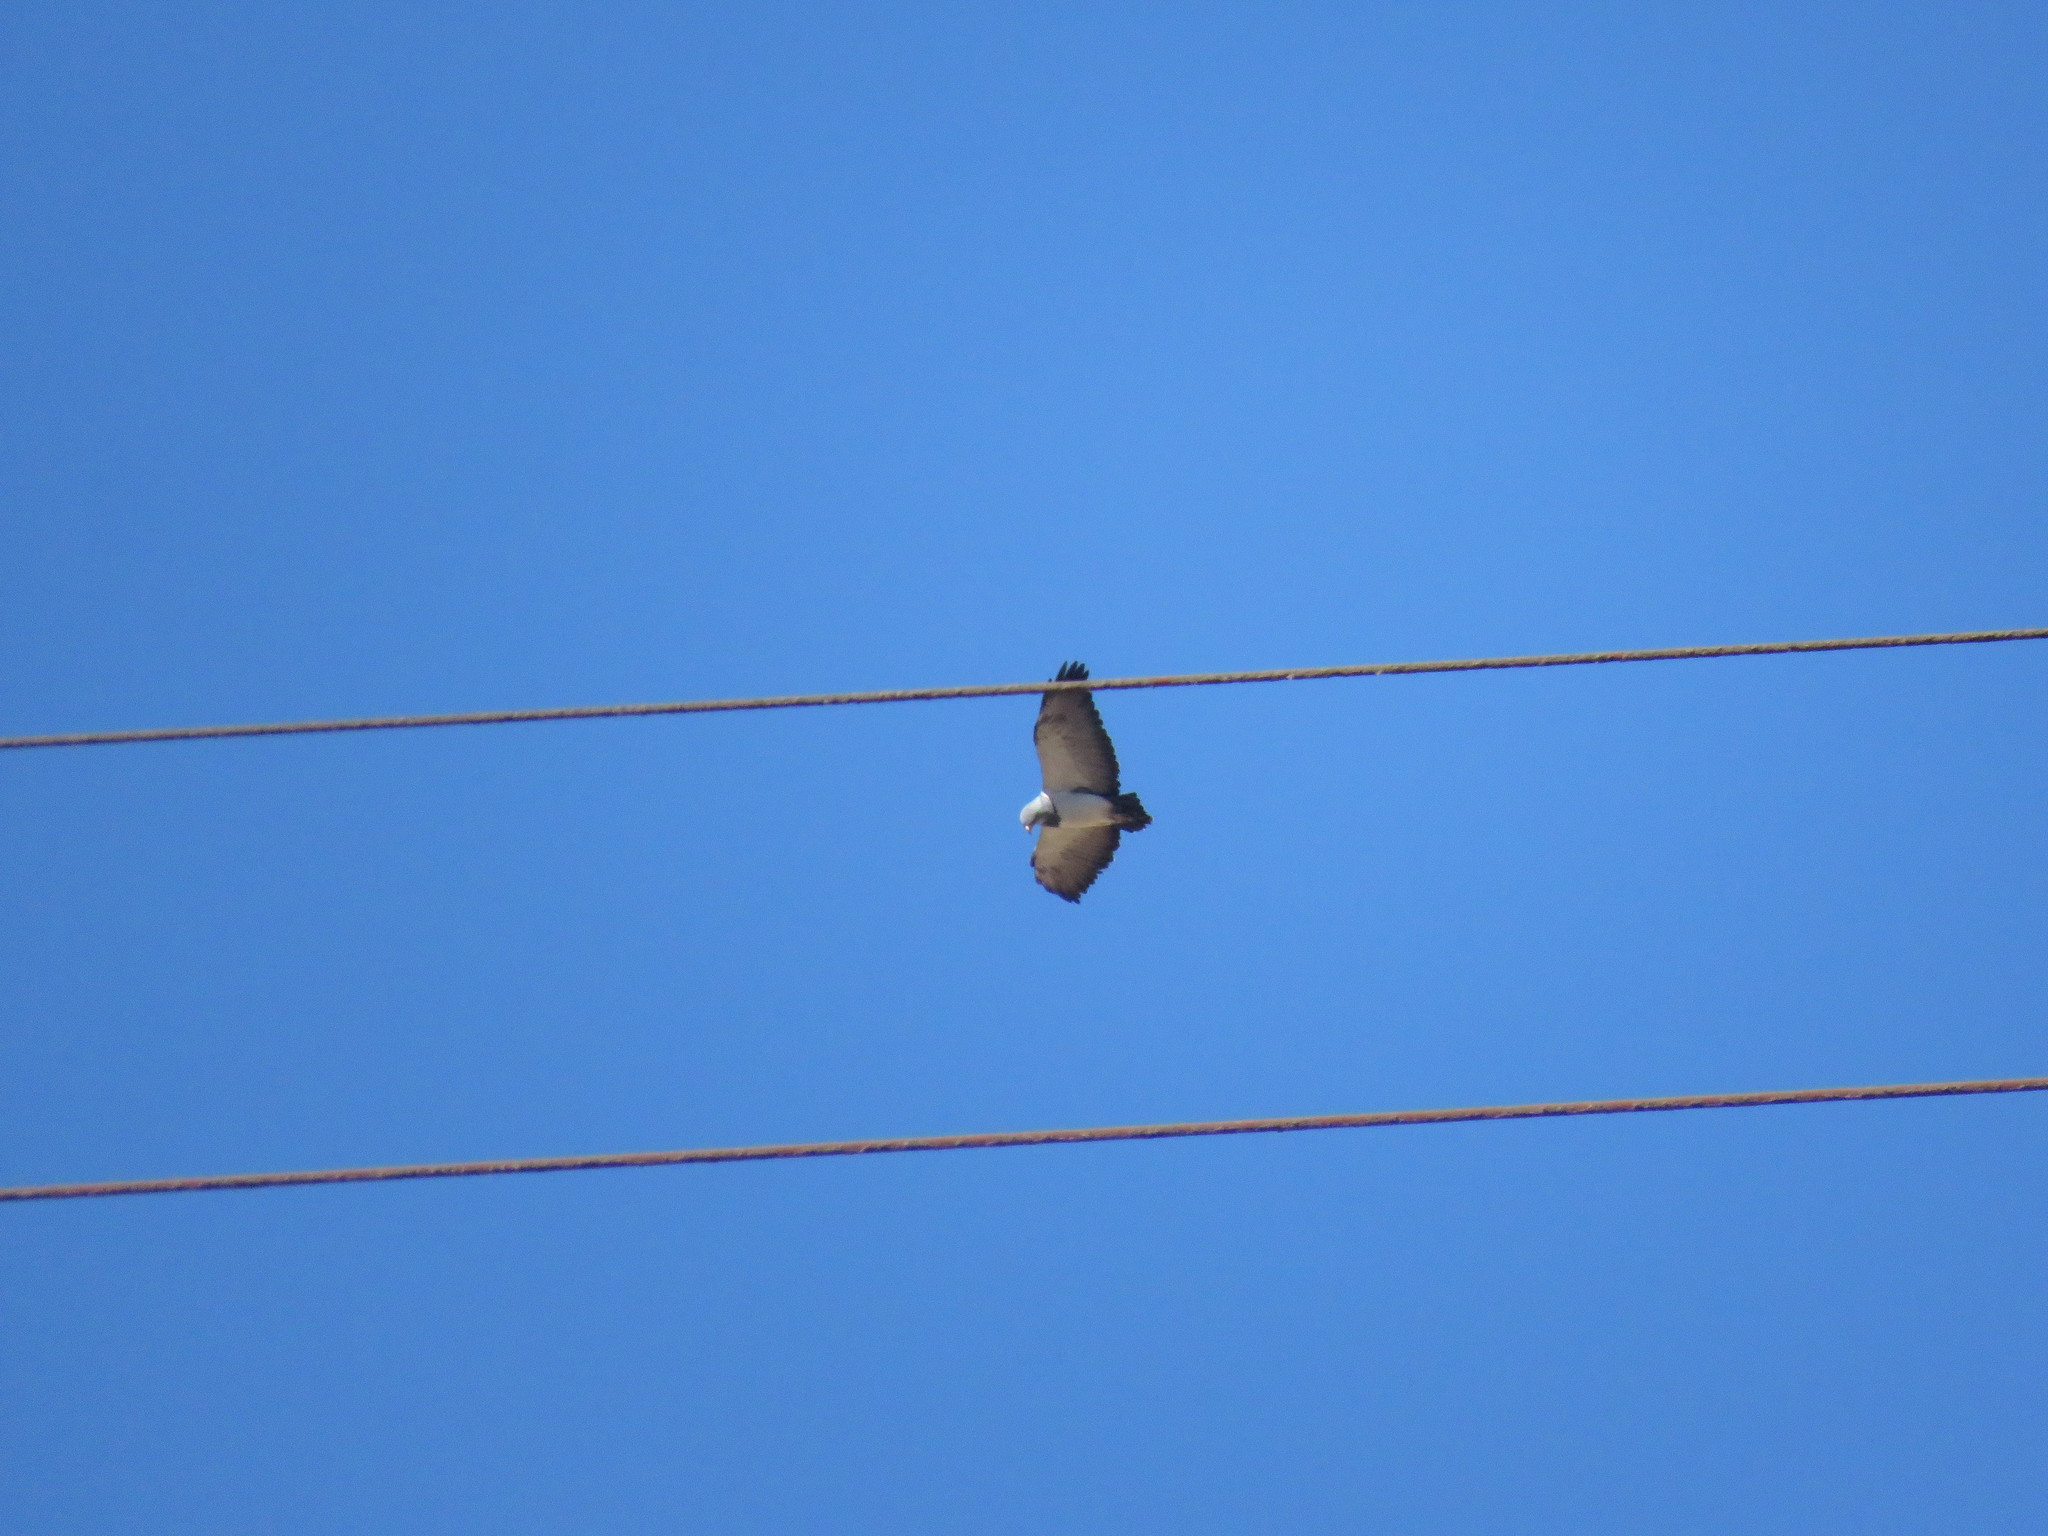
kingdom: Animalia
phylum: Chordata
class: Aves
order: Accipitriformes
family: Accipitridae
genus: Geranoaetus
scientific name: Geranoaetus melanoleucus
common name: Black-chested buzzard-eagle
